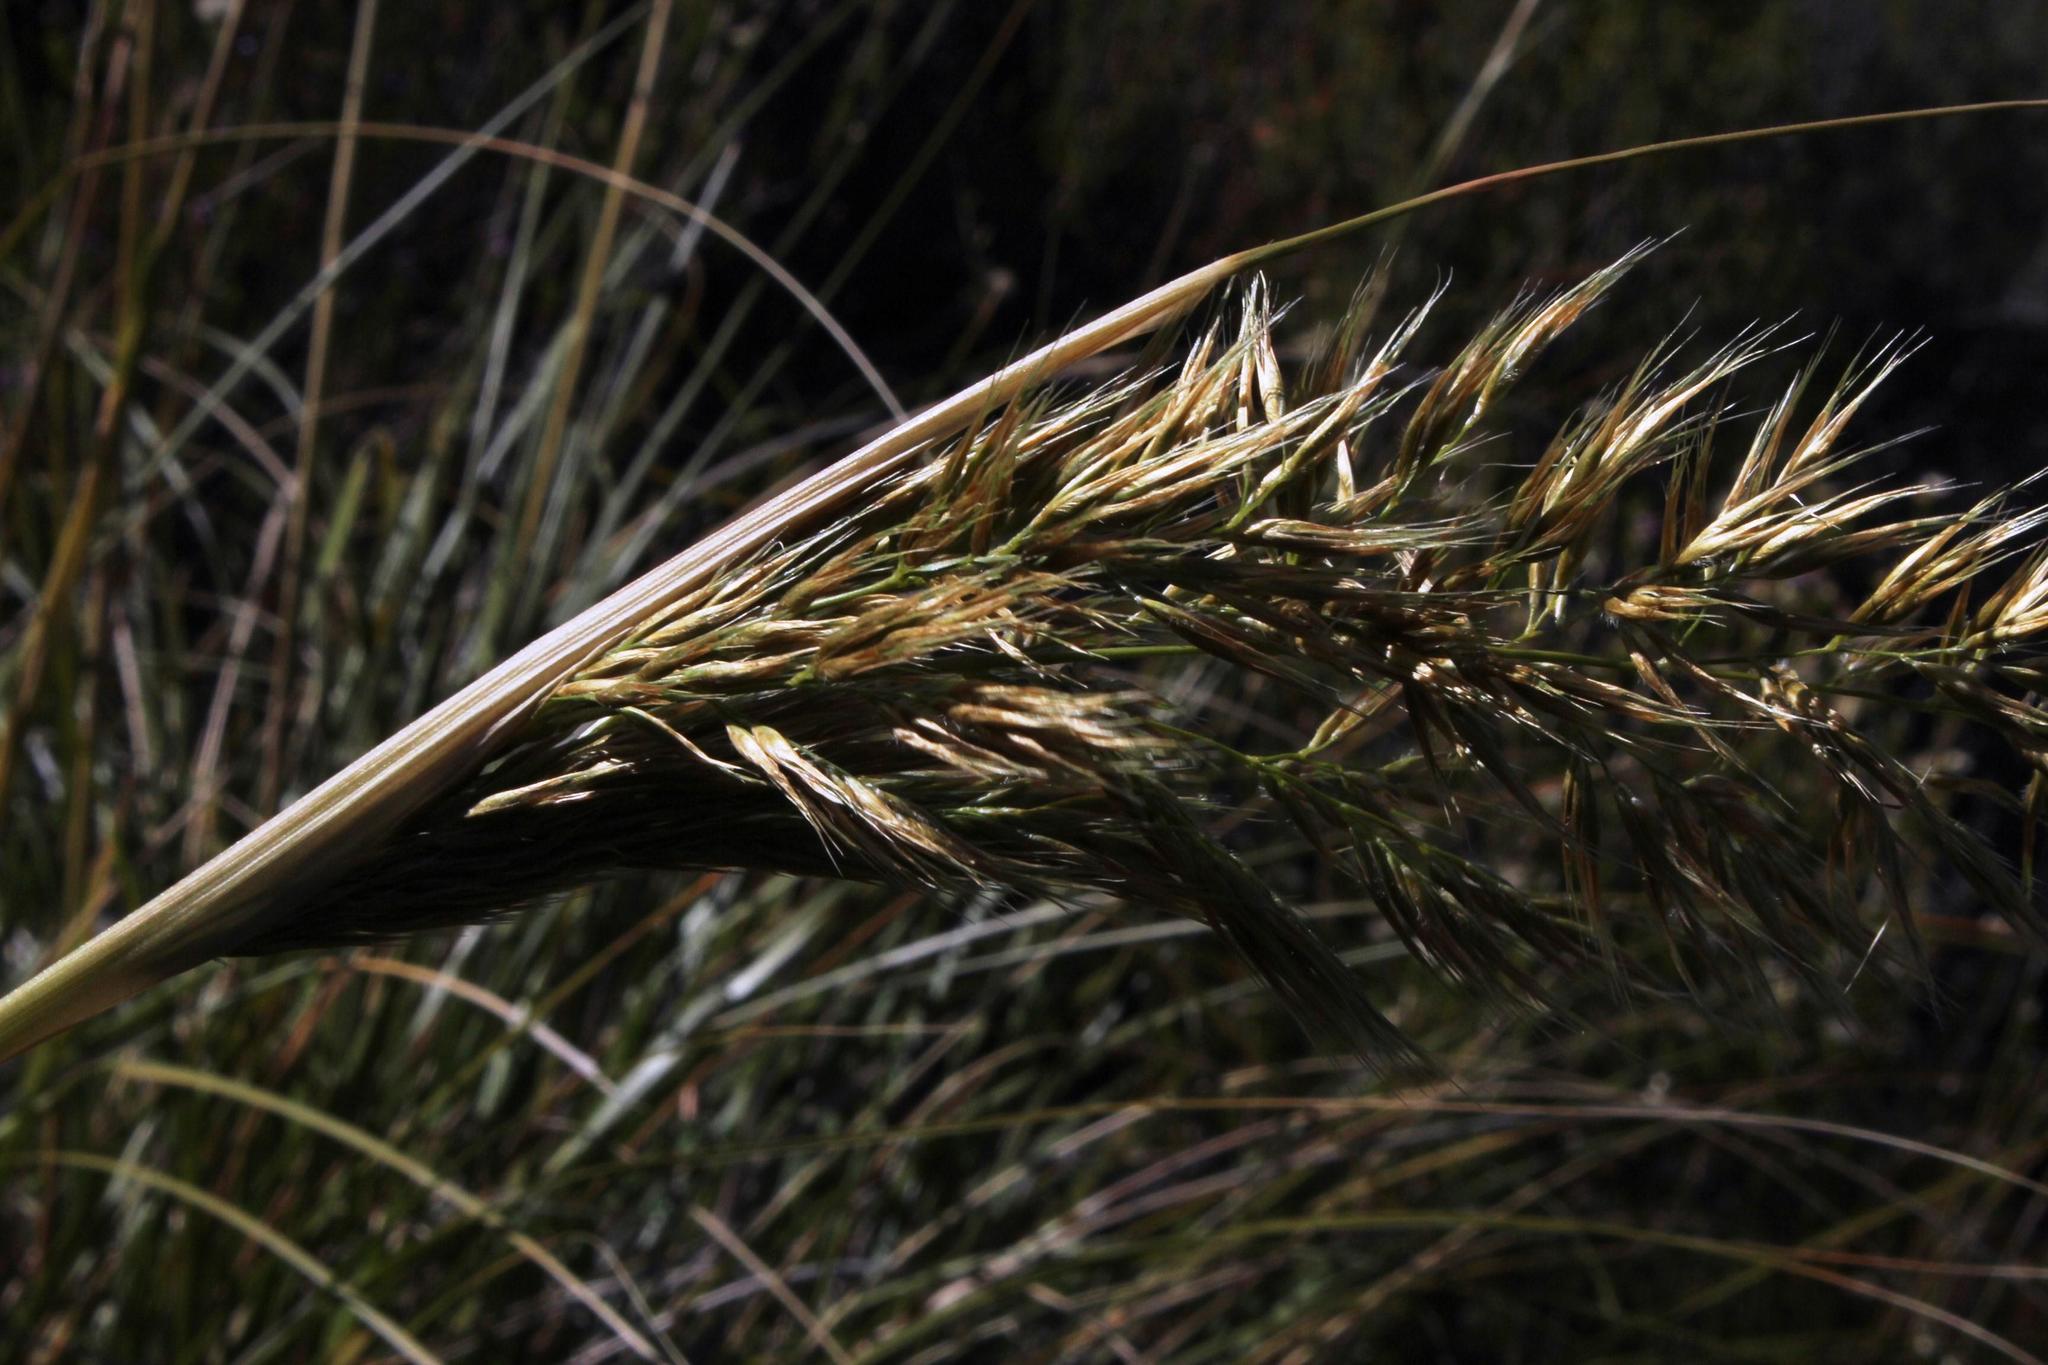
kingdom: Plantae
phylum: Tracheophyta
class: Liliopsida
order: Poales
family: Poaceae
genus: Capeochloa
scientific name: Capeochloa arundinacea
